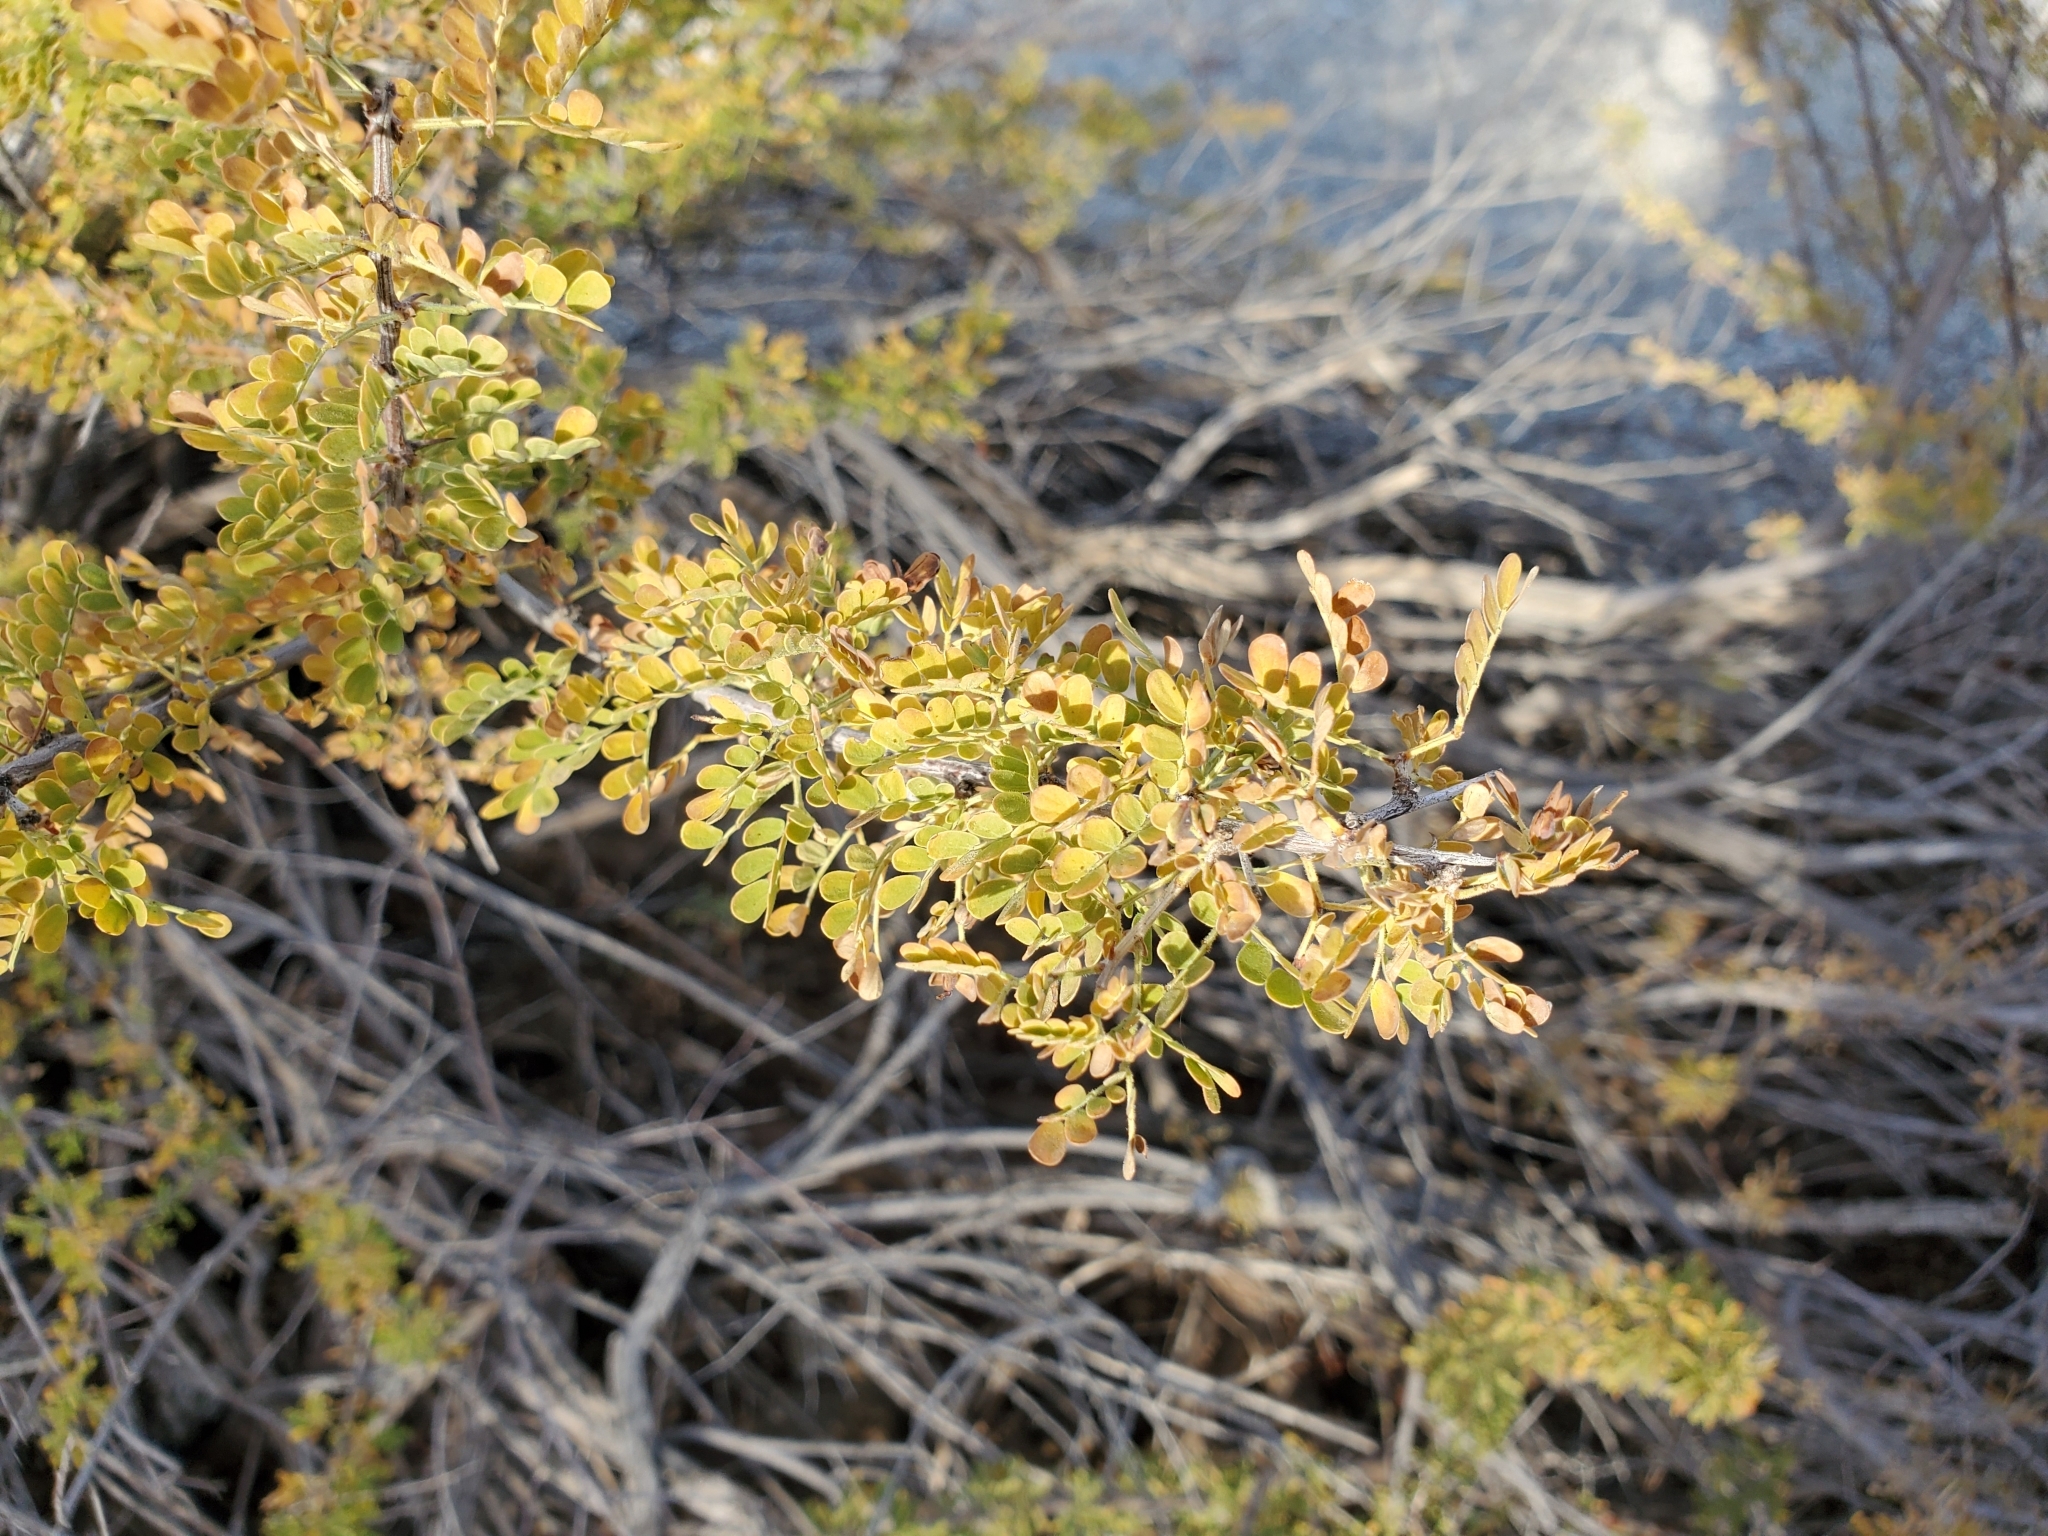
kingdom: Plantae
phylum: Tracheophyta
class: Magnoliopsida
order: Fabales
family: Fabaceae
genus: Senegalia
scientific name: Senegalia greggii
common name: Texas-mimosa
